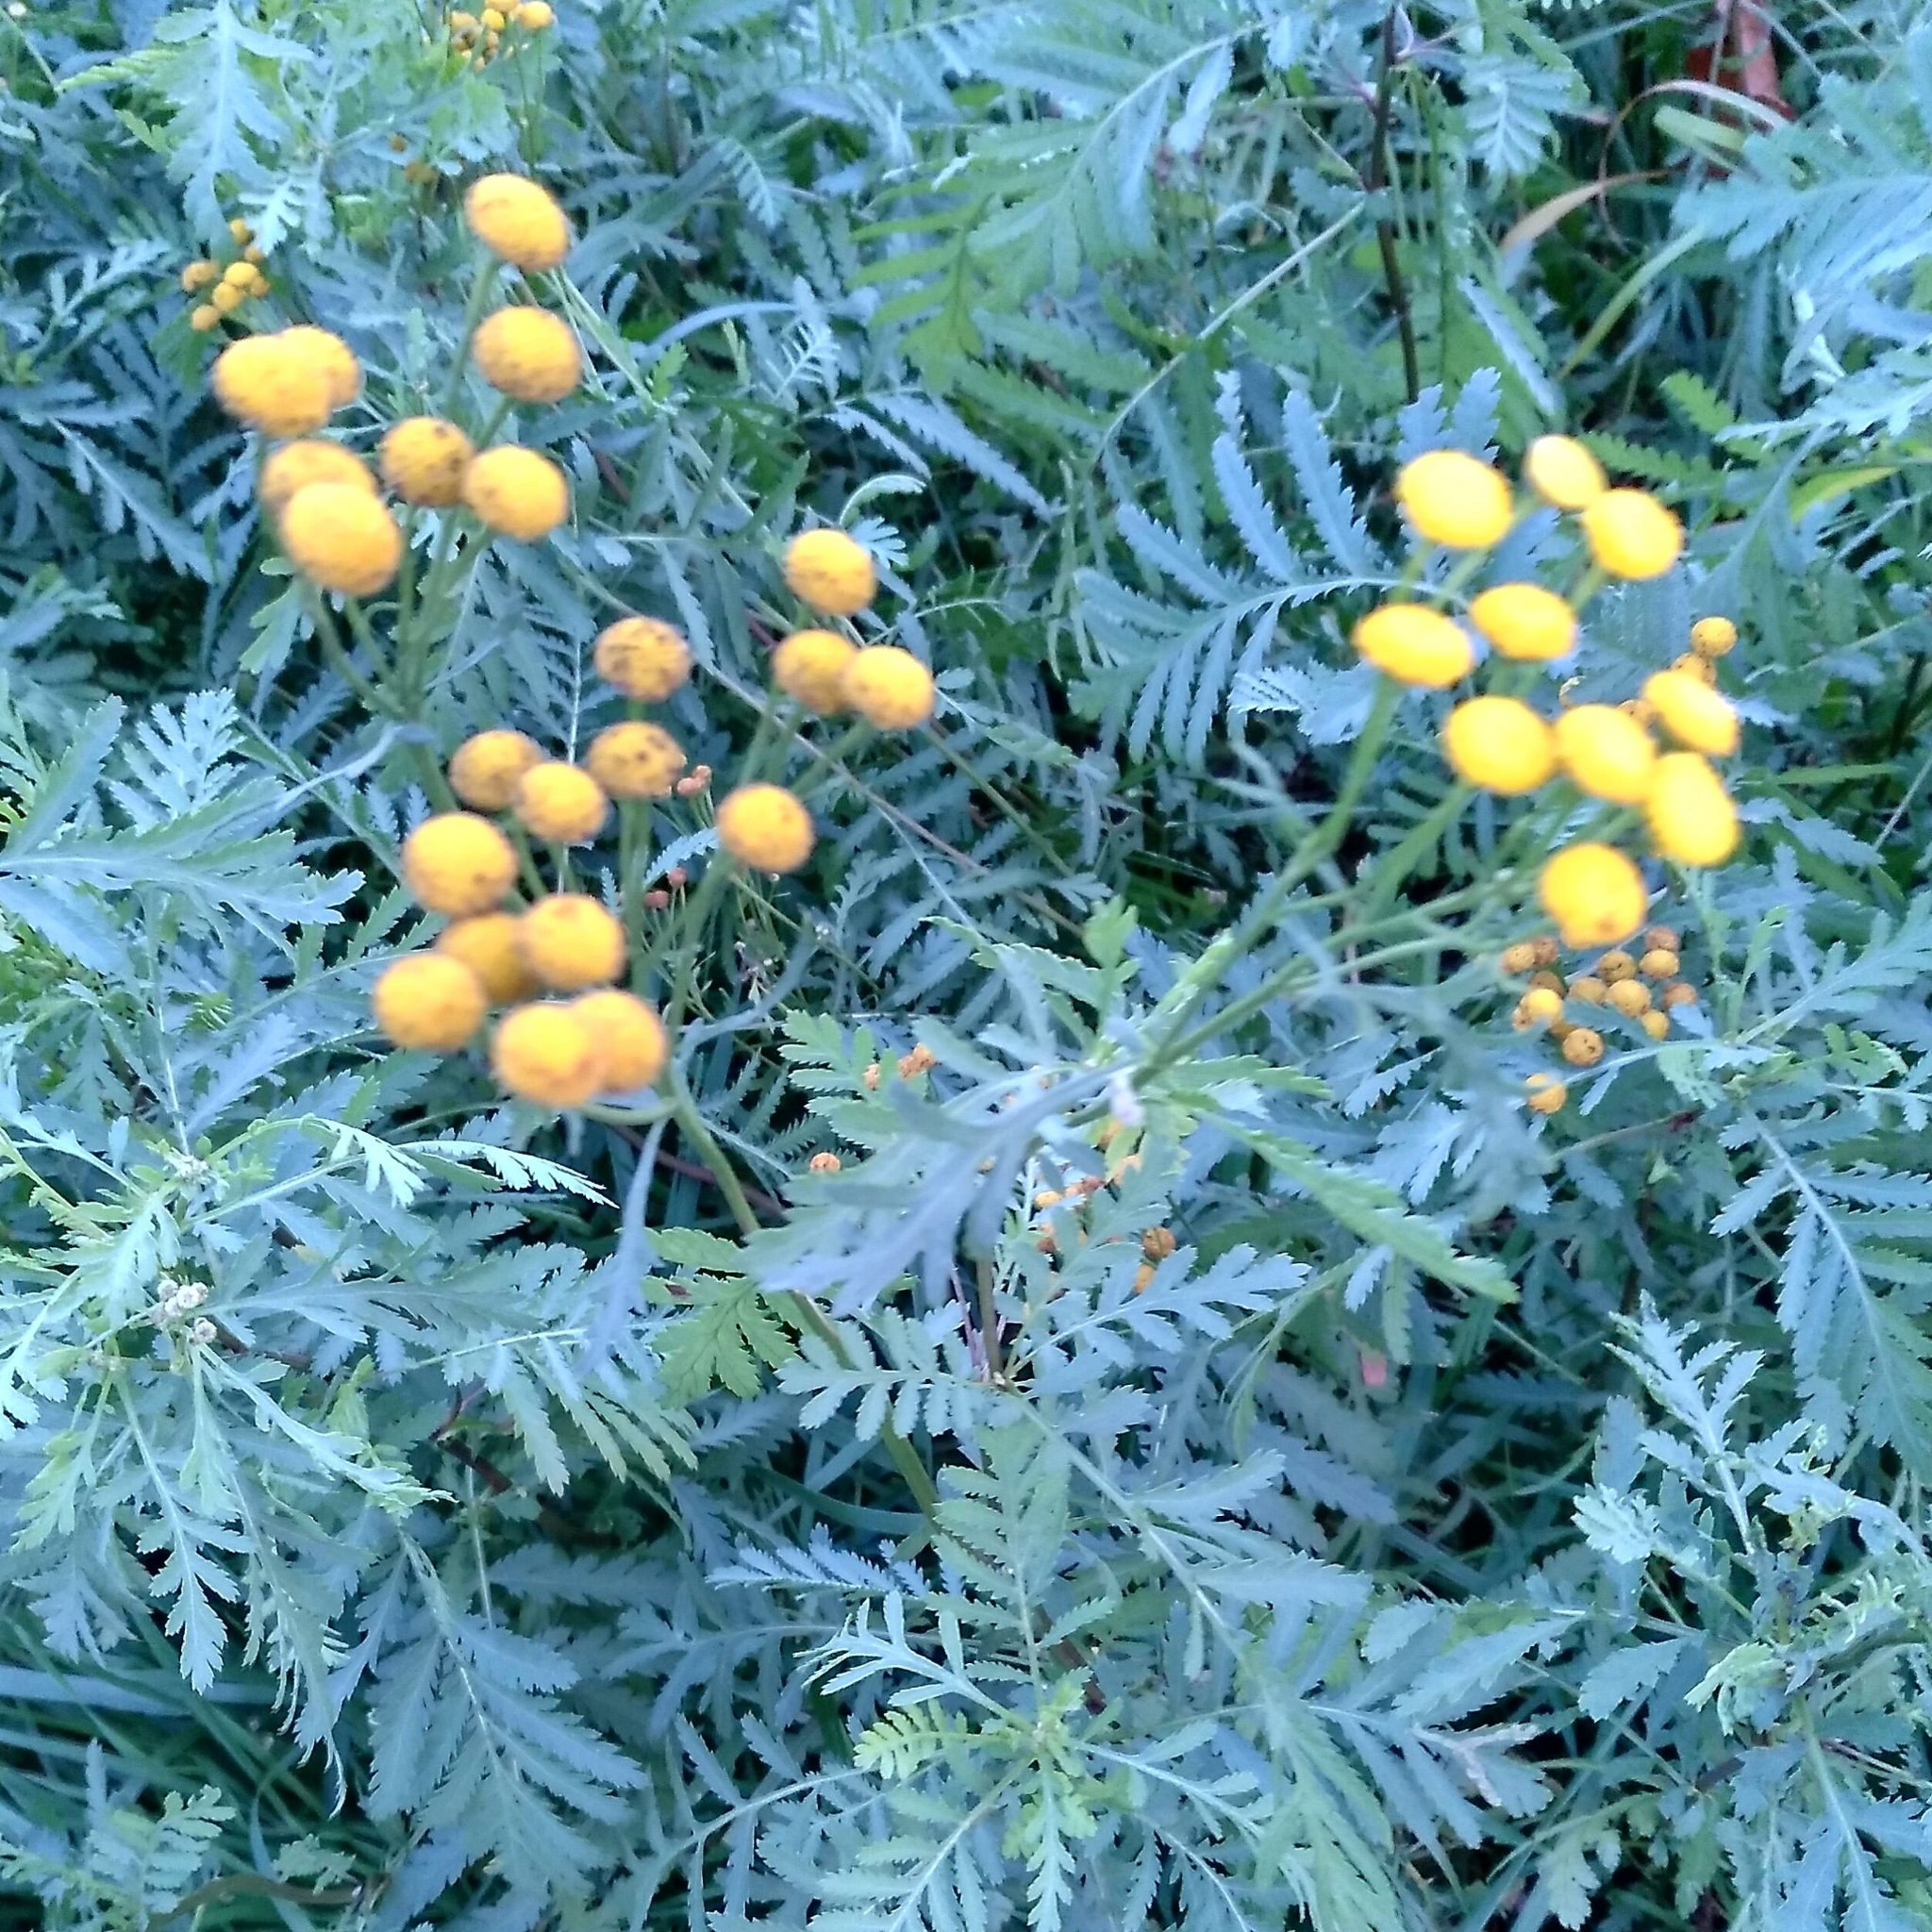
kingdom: Plantae
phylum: Tracheophyta
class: Magnoliopsida
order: Asterales
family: Asteraceae
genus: Tanacetum
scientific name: Tanacetum vulgare
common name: Common tansy
